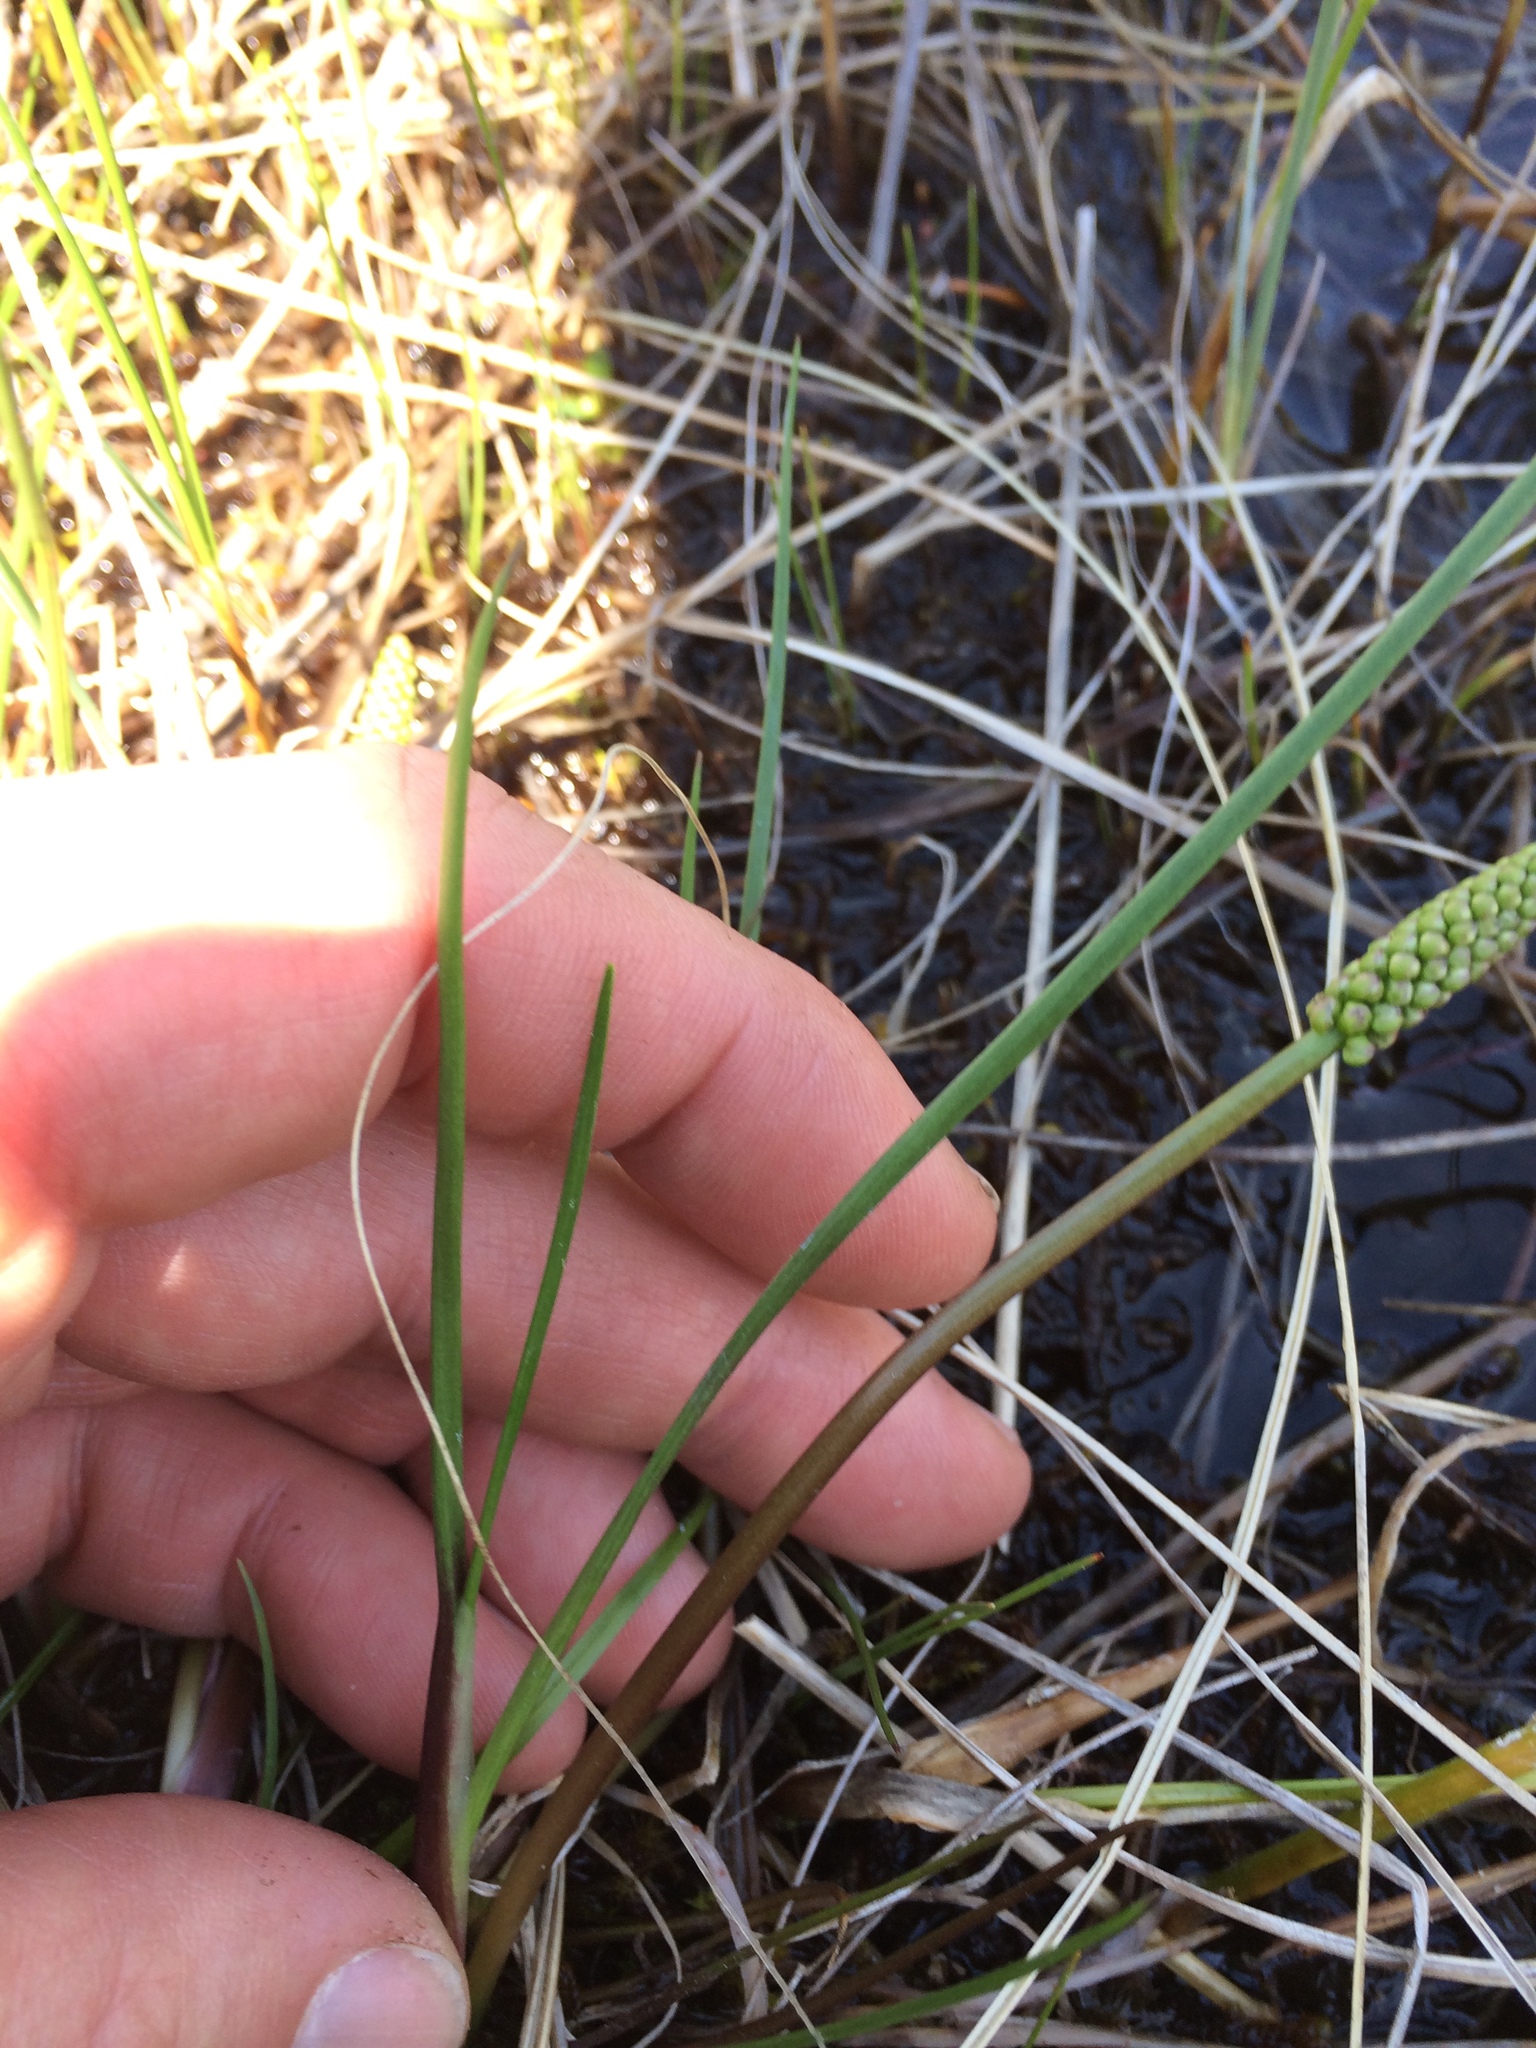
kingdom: Plantae
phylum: Tracheophyta
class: Liliopsida
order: Alismatales
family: Juncaginaceae
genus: Triglochin
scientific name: Triglochin maritima
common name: Sea arrowgrass
